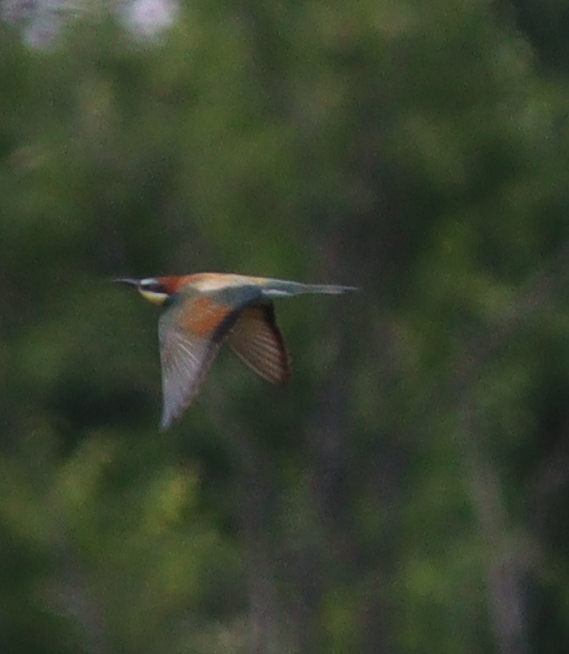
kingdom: Animalia
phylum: Chordata
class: Aves
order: Coraciiformes
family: Meropidae
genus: Merops
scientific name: Merops apiaster
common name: European bee-eater
